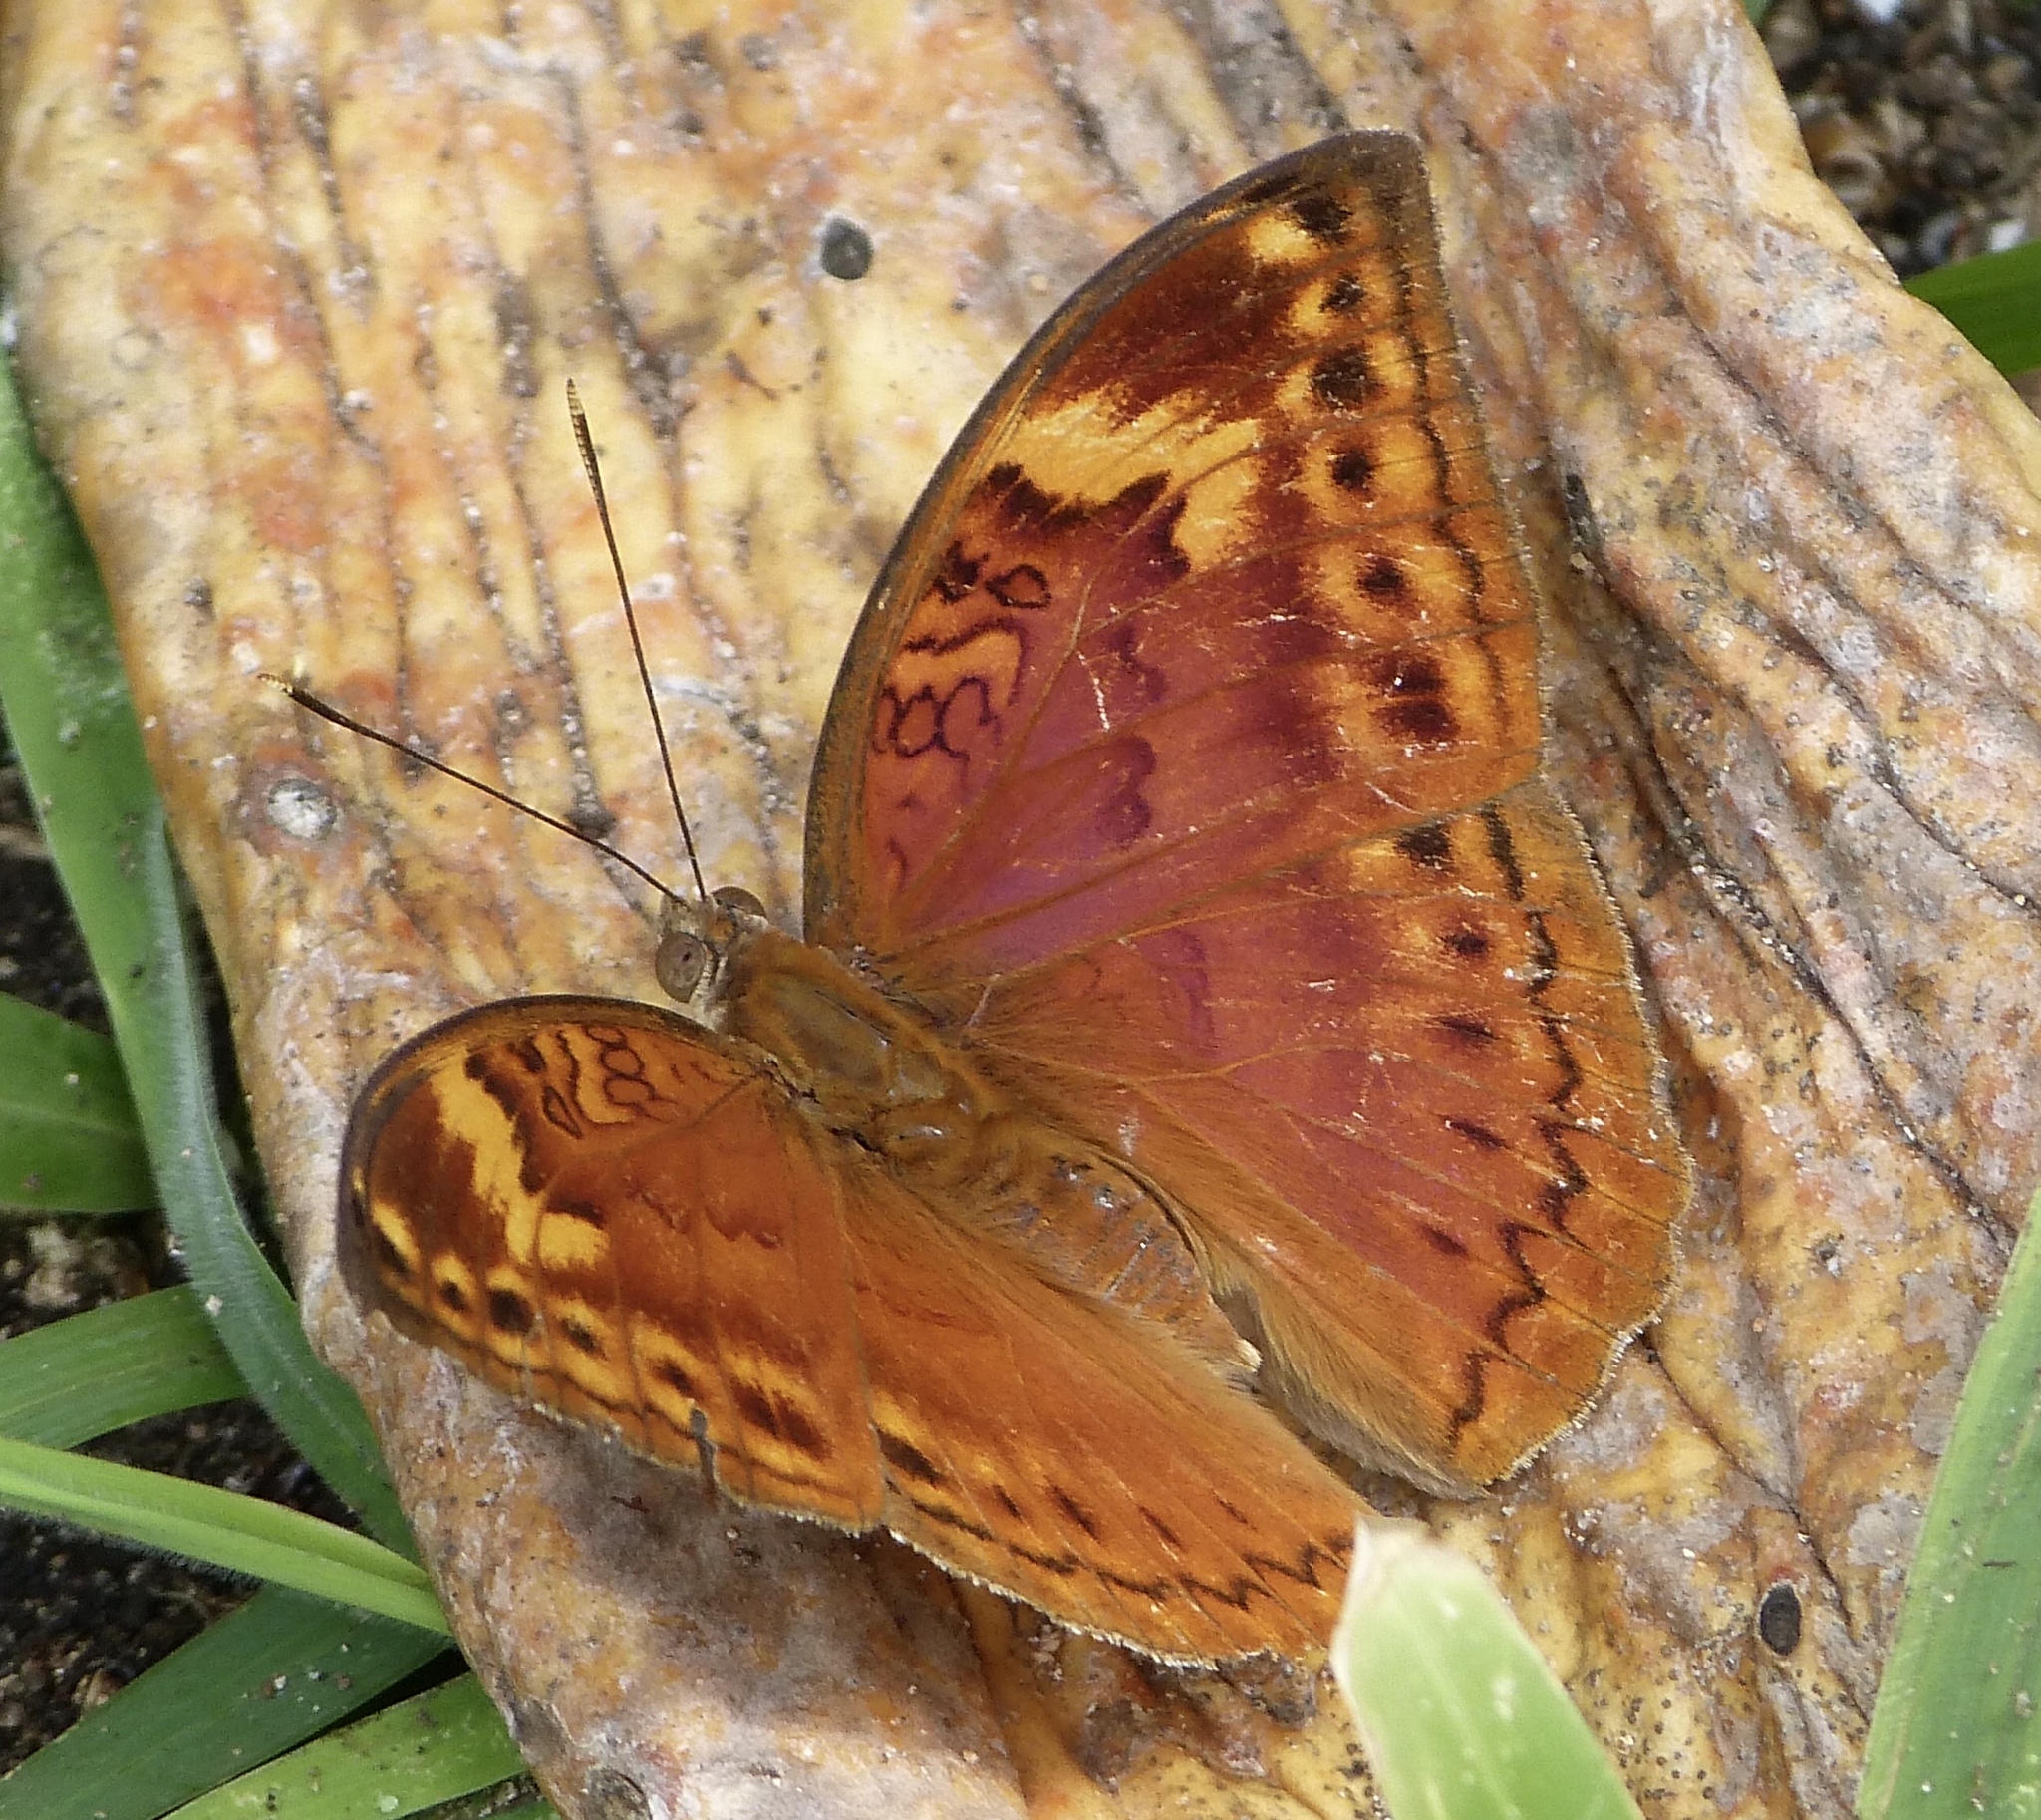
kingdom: Animalia
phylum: Arthropoda
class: Insecta
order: Lepidoptera
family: Nymphalidae
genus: Bebearia
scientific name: Bebearia orientis
